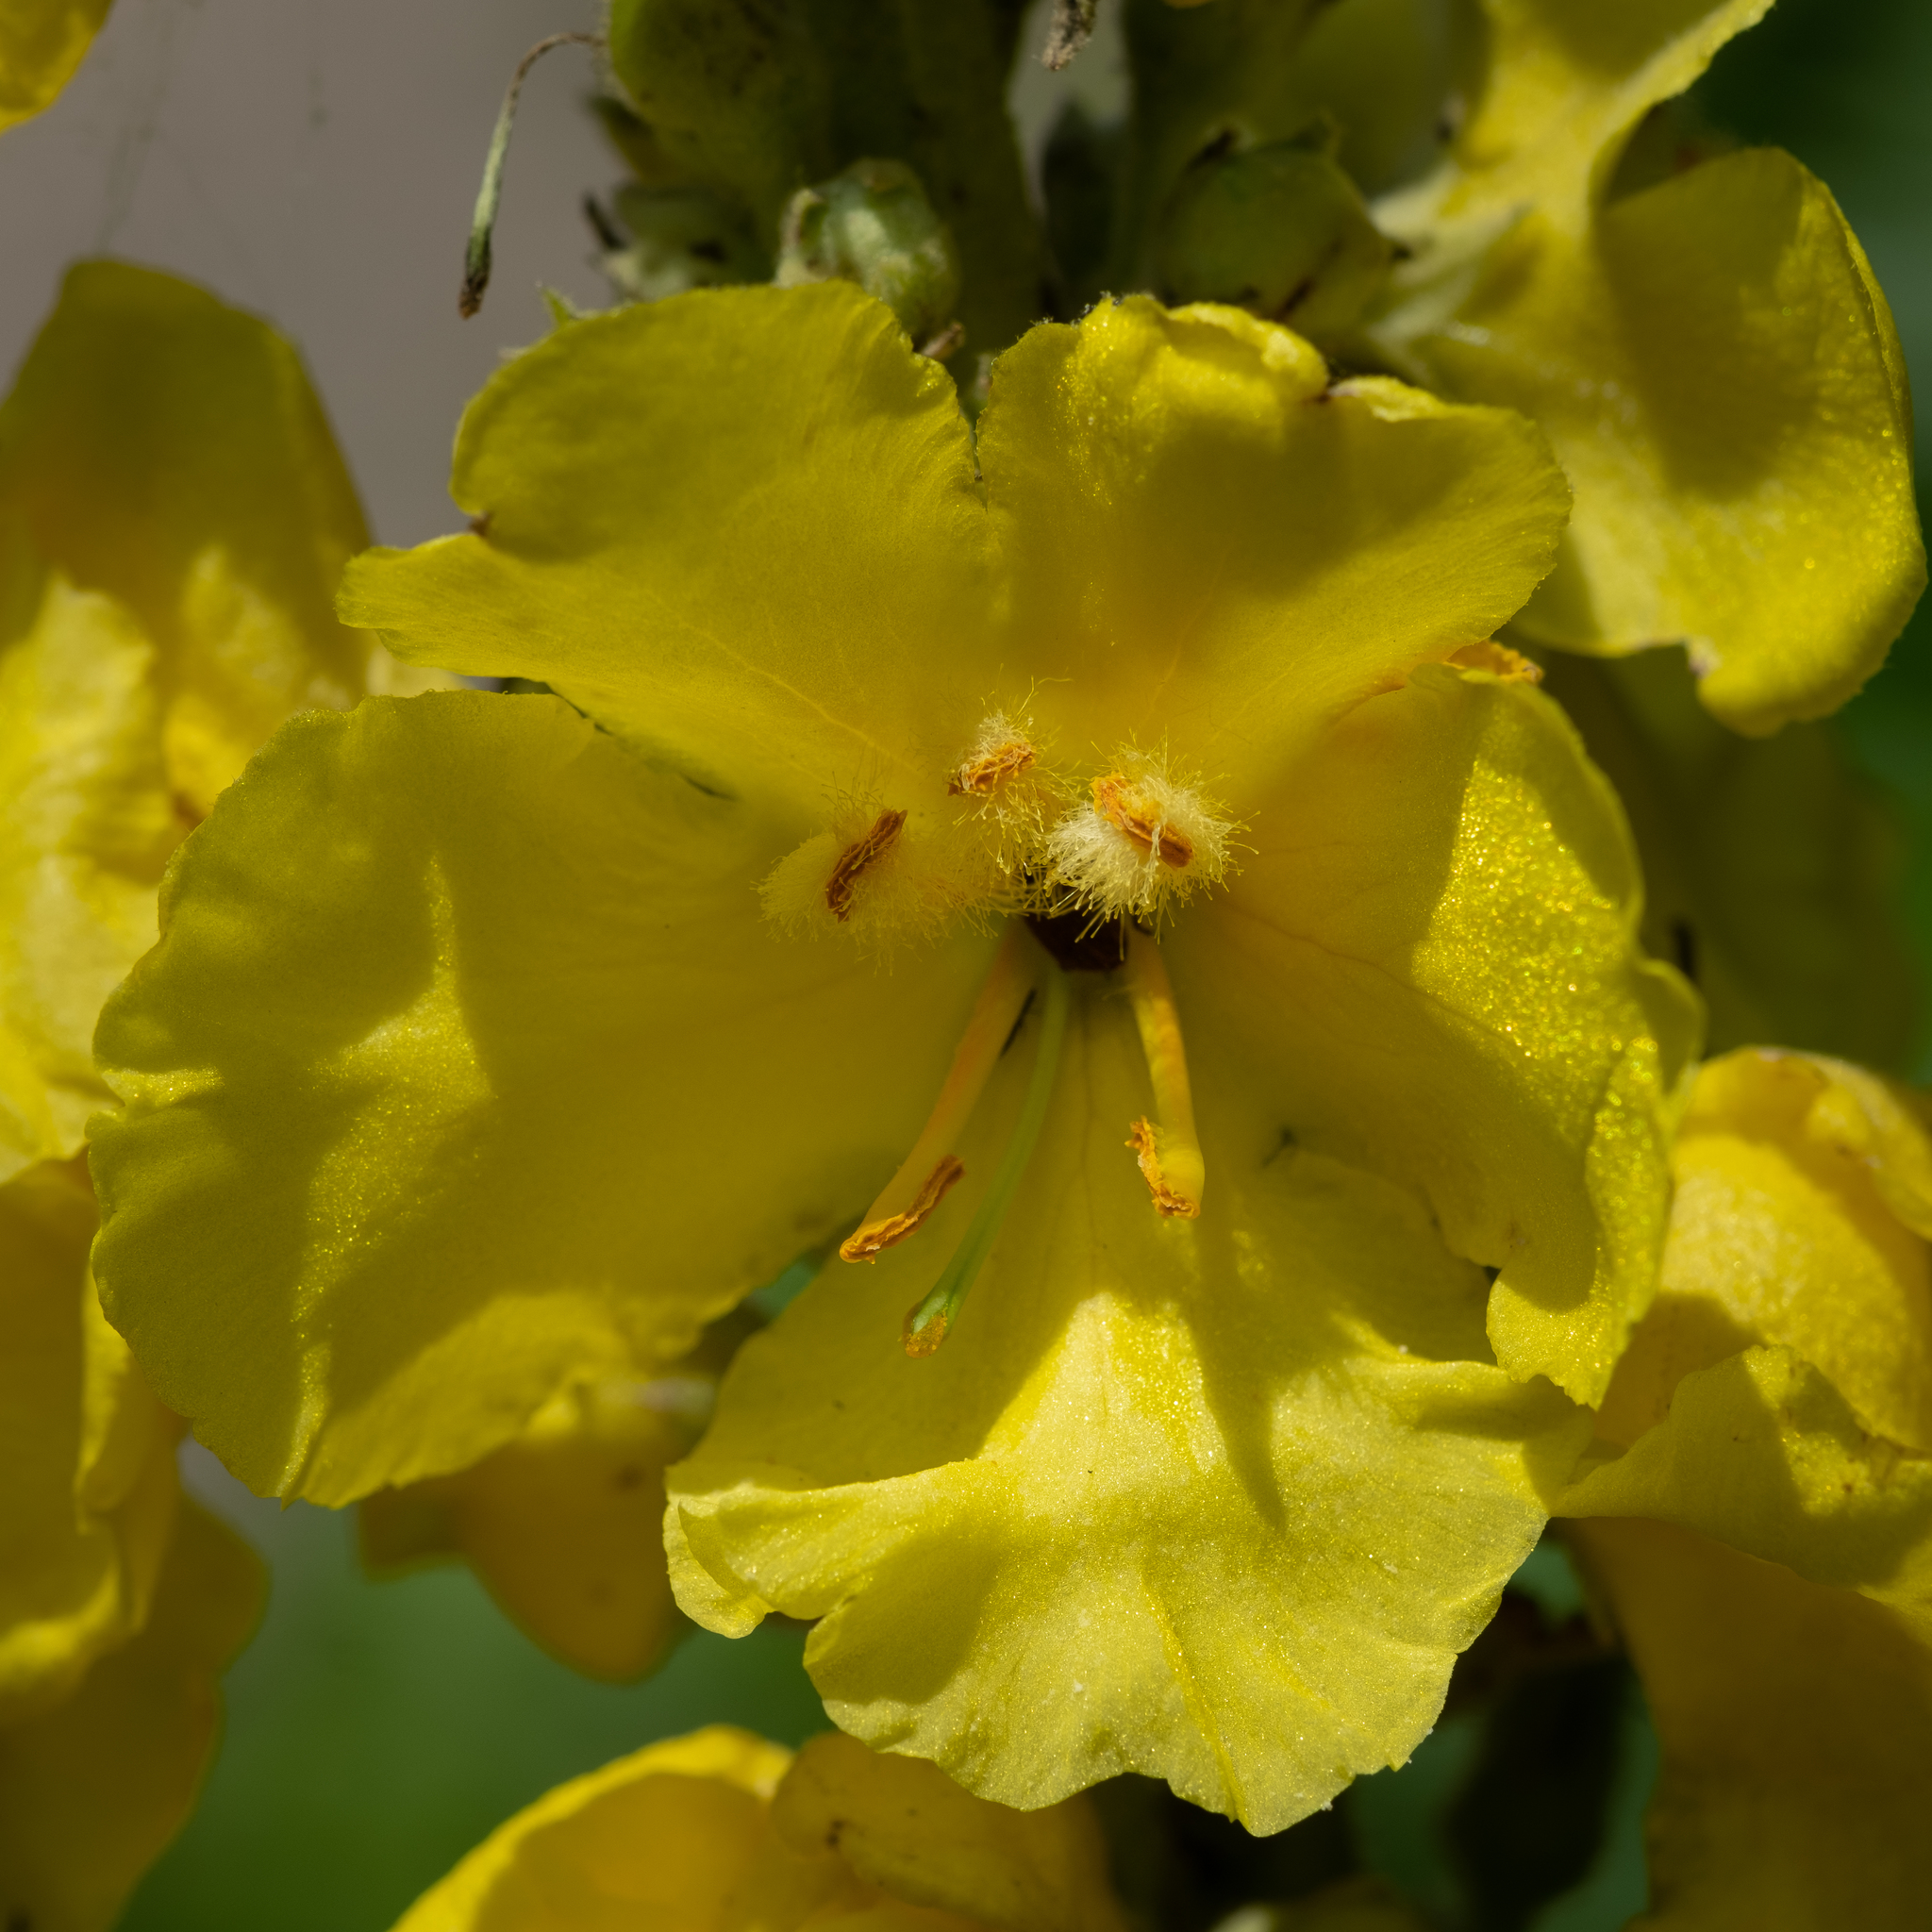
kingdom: Plantae
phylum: Tracheophyta
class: Magnoliopsida
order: Lamiales
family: Scrophulariaceae
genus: Verbascum
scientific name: Verbascum phlomoides
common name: Orange mullein
